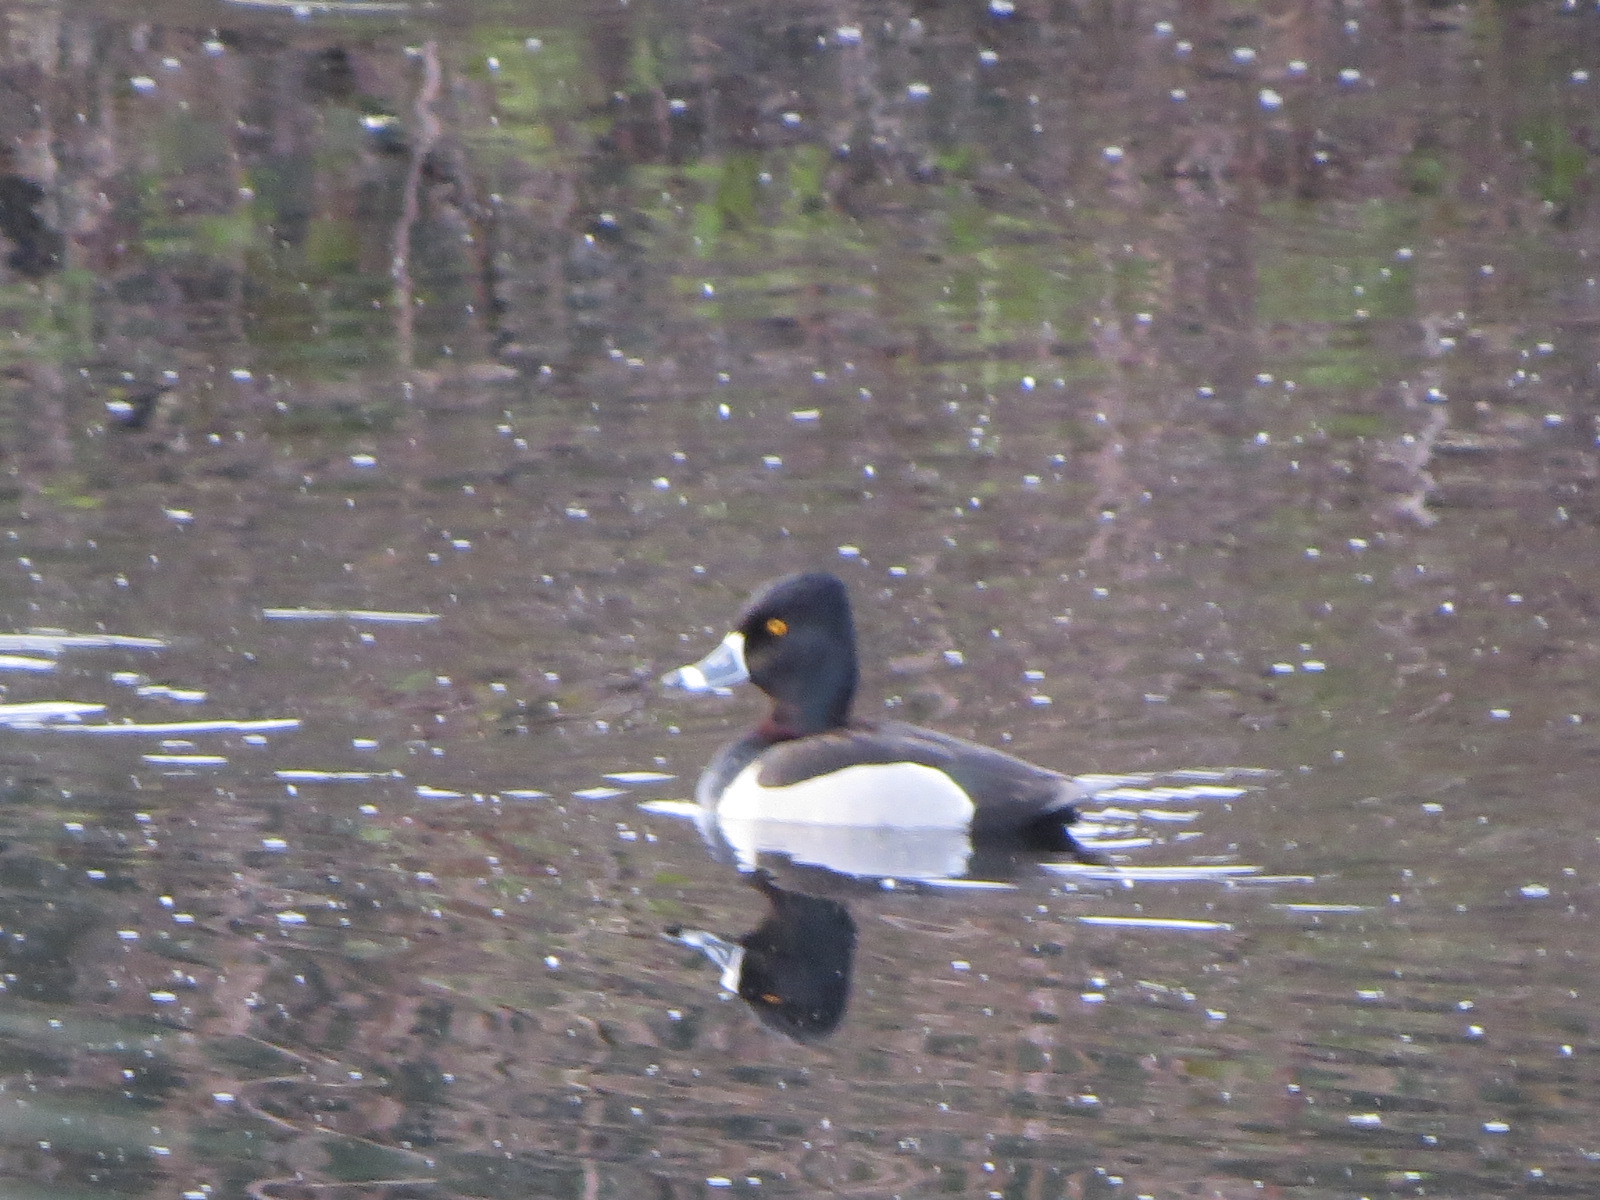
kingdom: Animalia
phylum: Chordata
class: Aves
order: Anseriformes
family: Anatidae
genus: Aythya
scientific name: Aythya collaris
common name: Ring-necked duck
